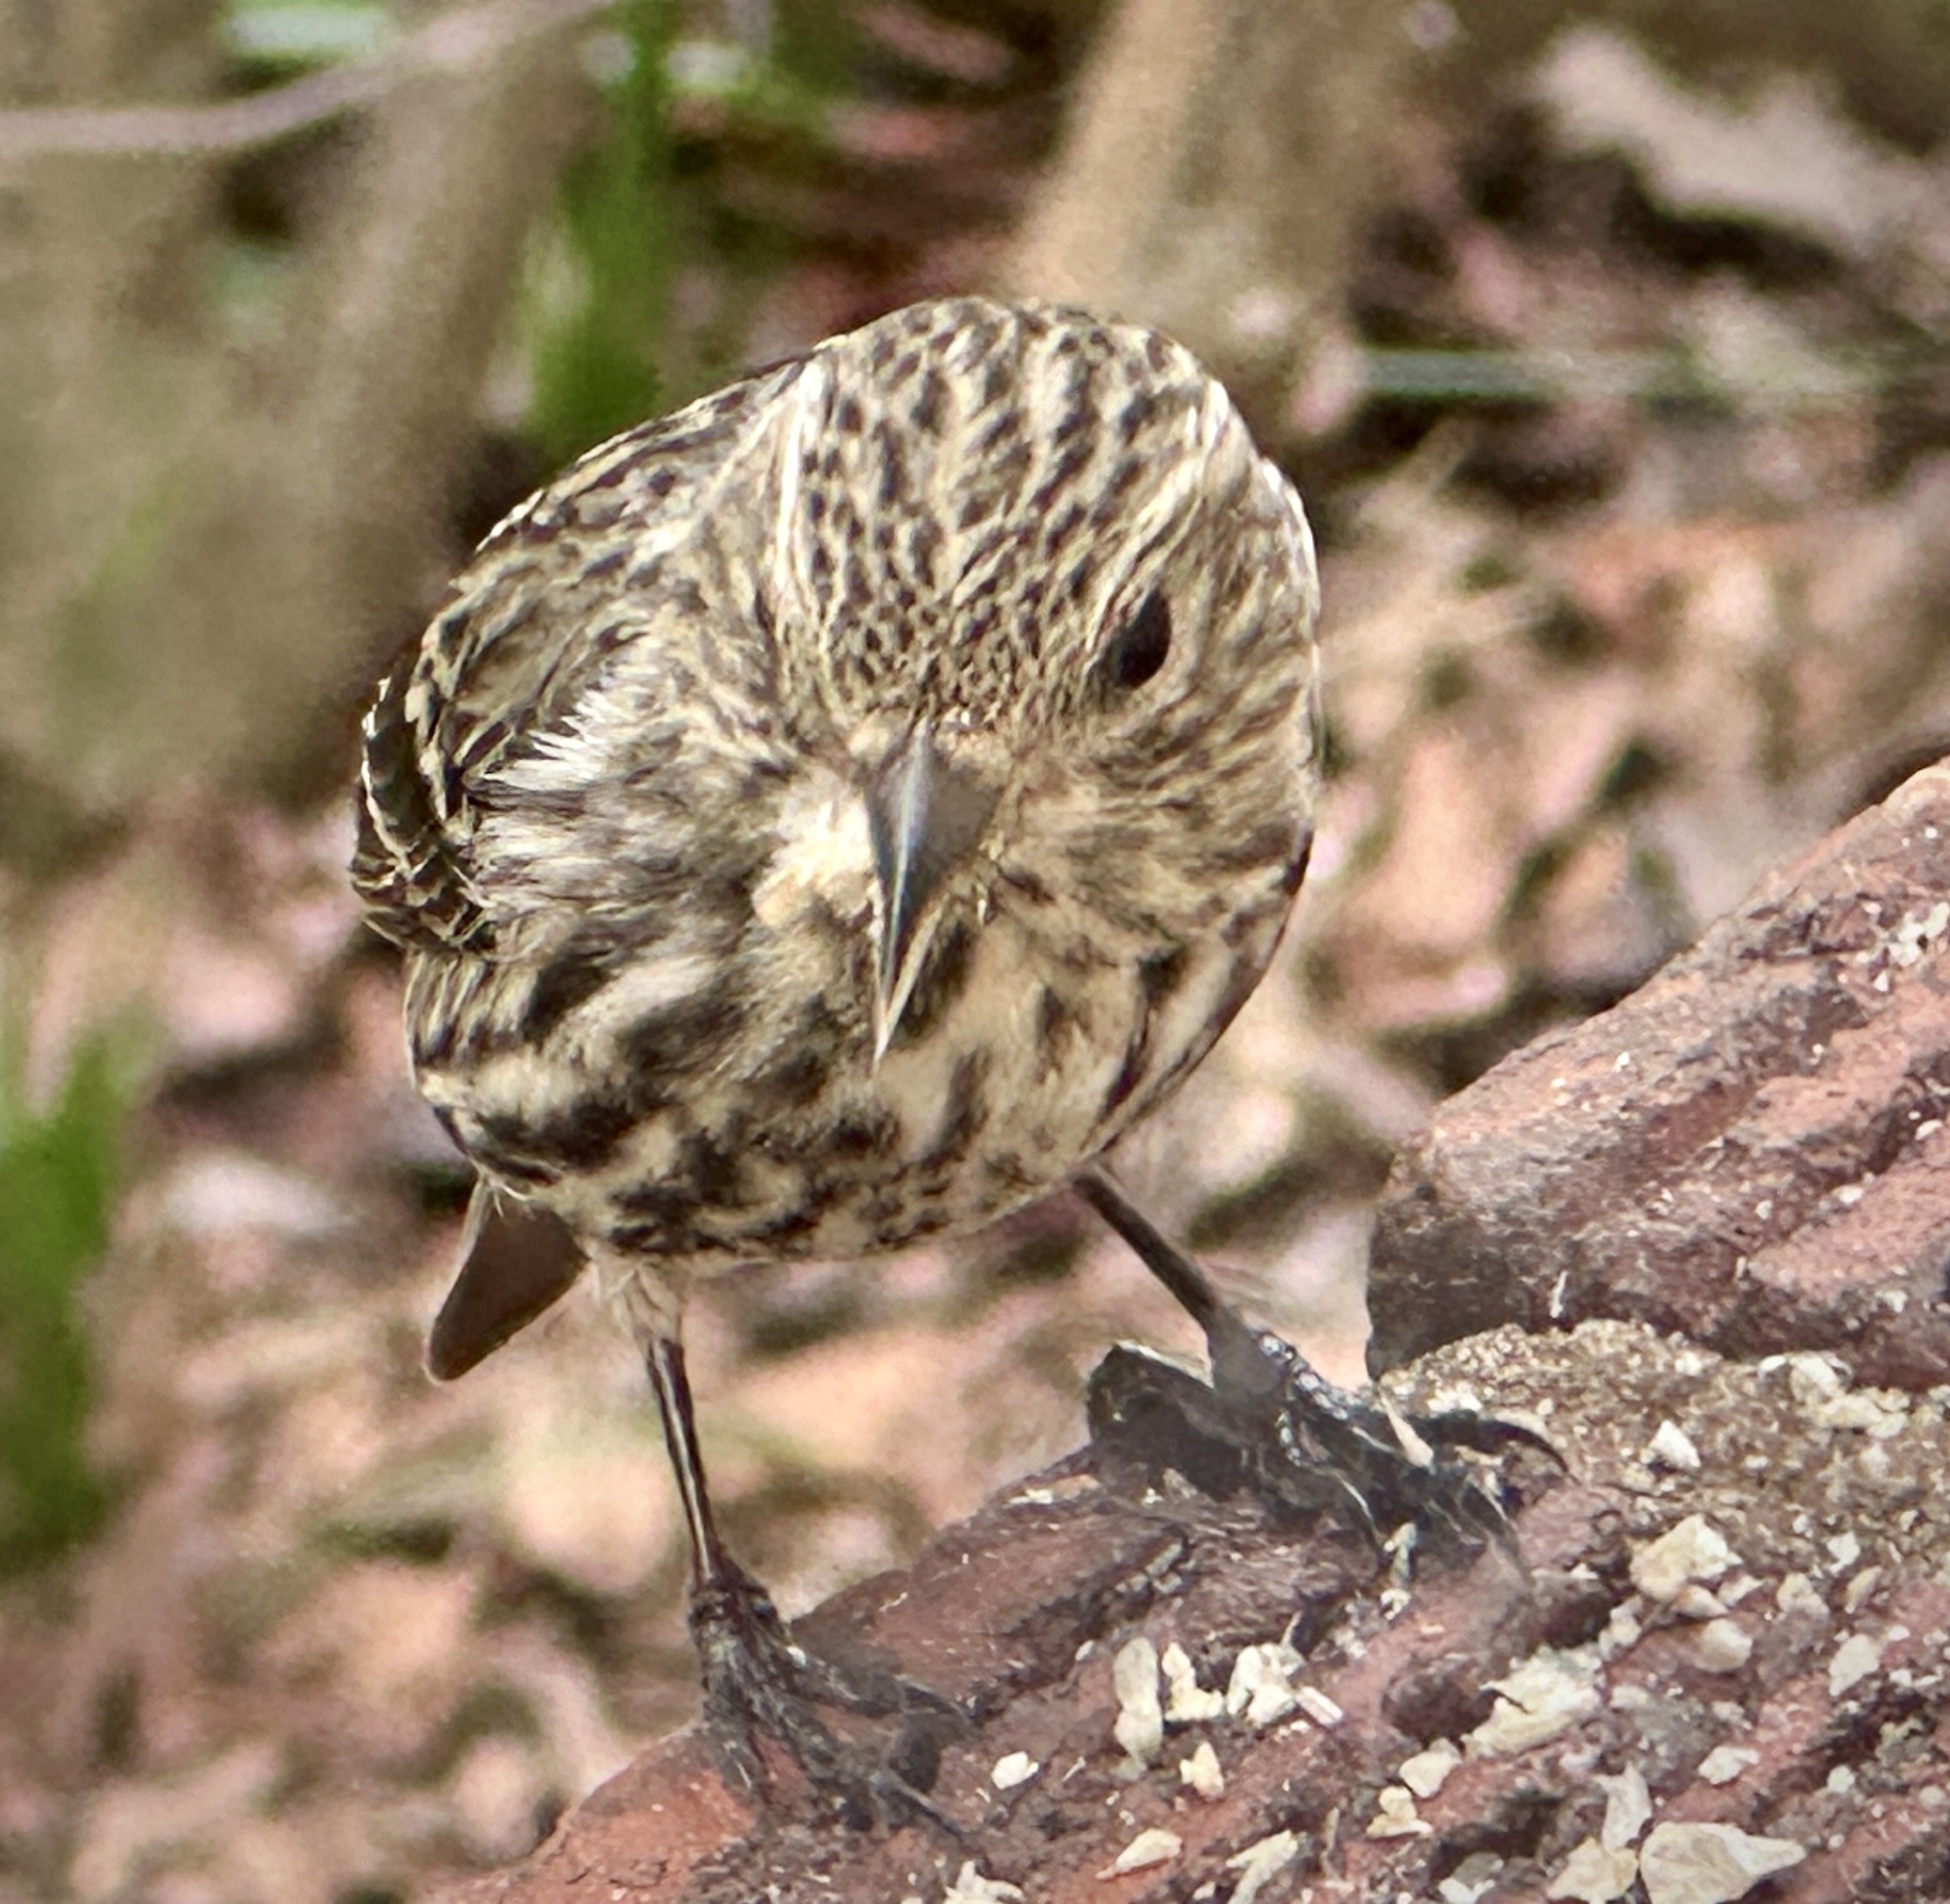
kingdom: Animalia
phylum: Chordata
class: Aves
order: Passeriformes
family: Fringillidae
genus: Spinus
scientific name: Spinus pinus
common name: Pine siskin
